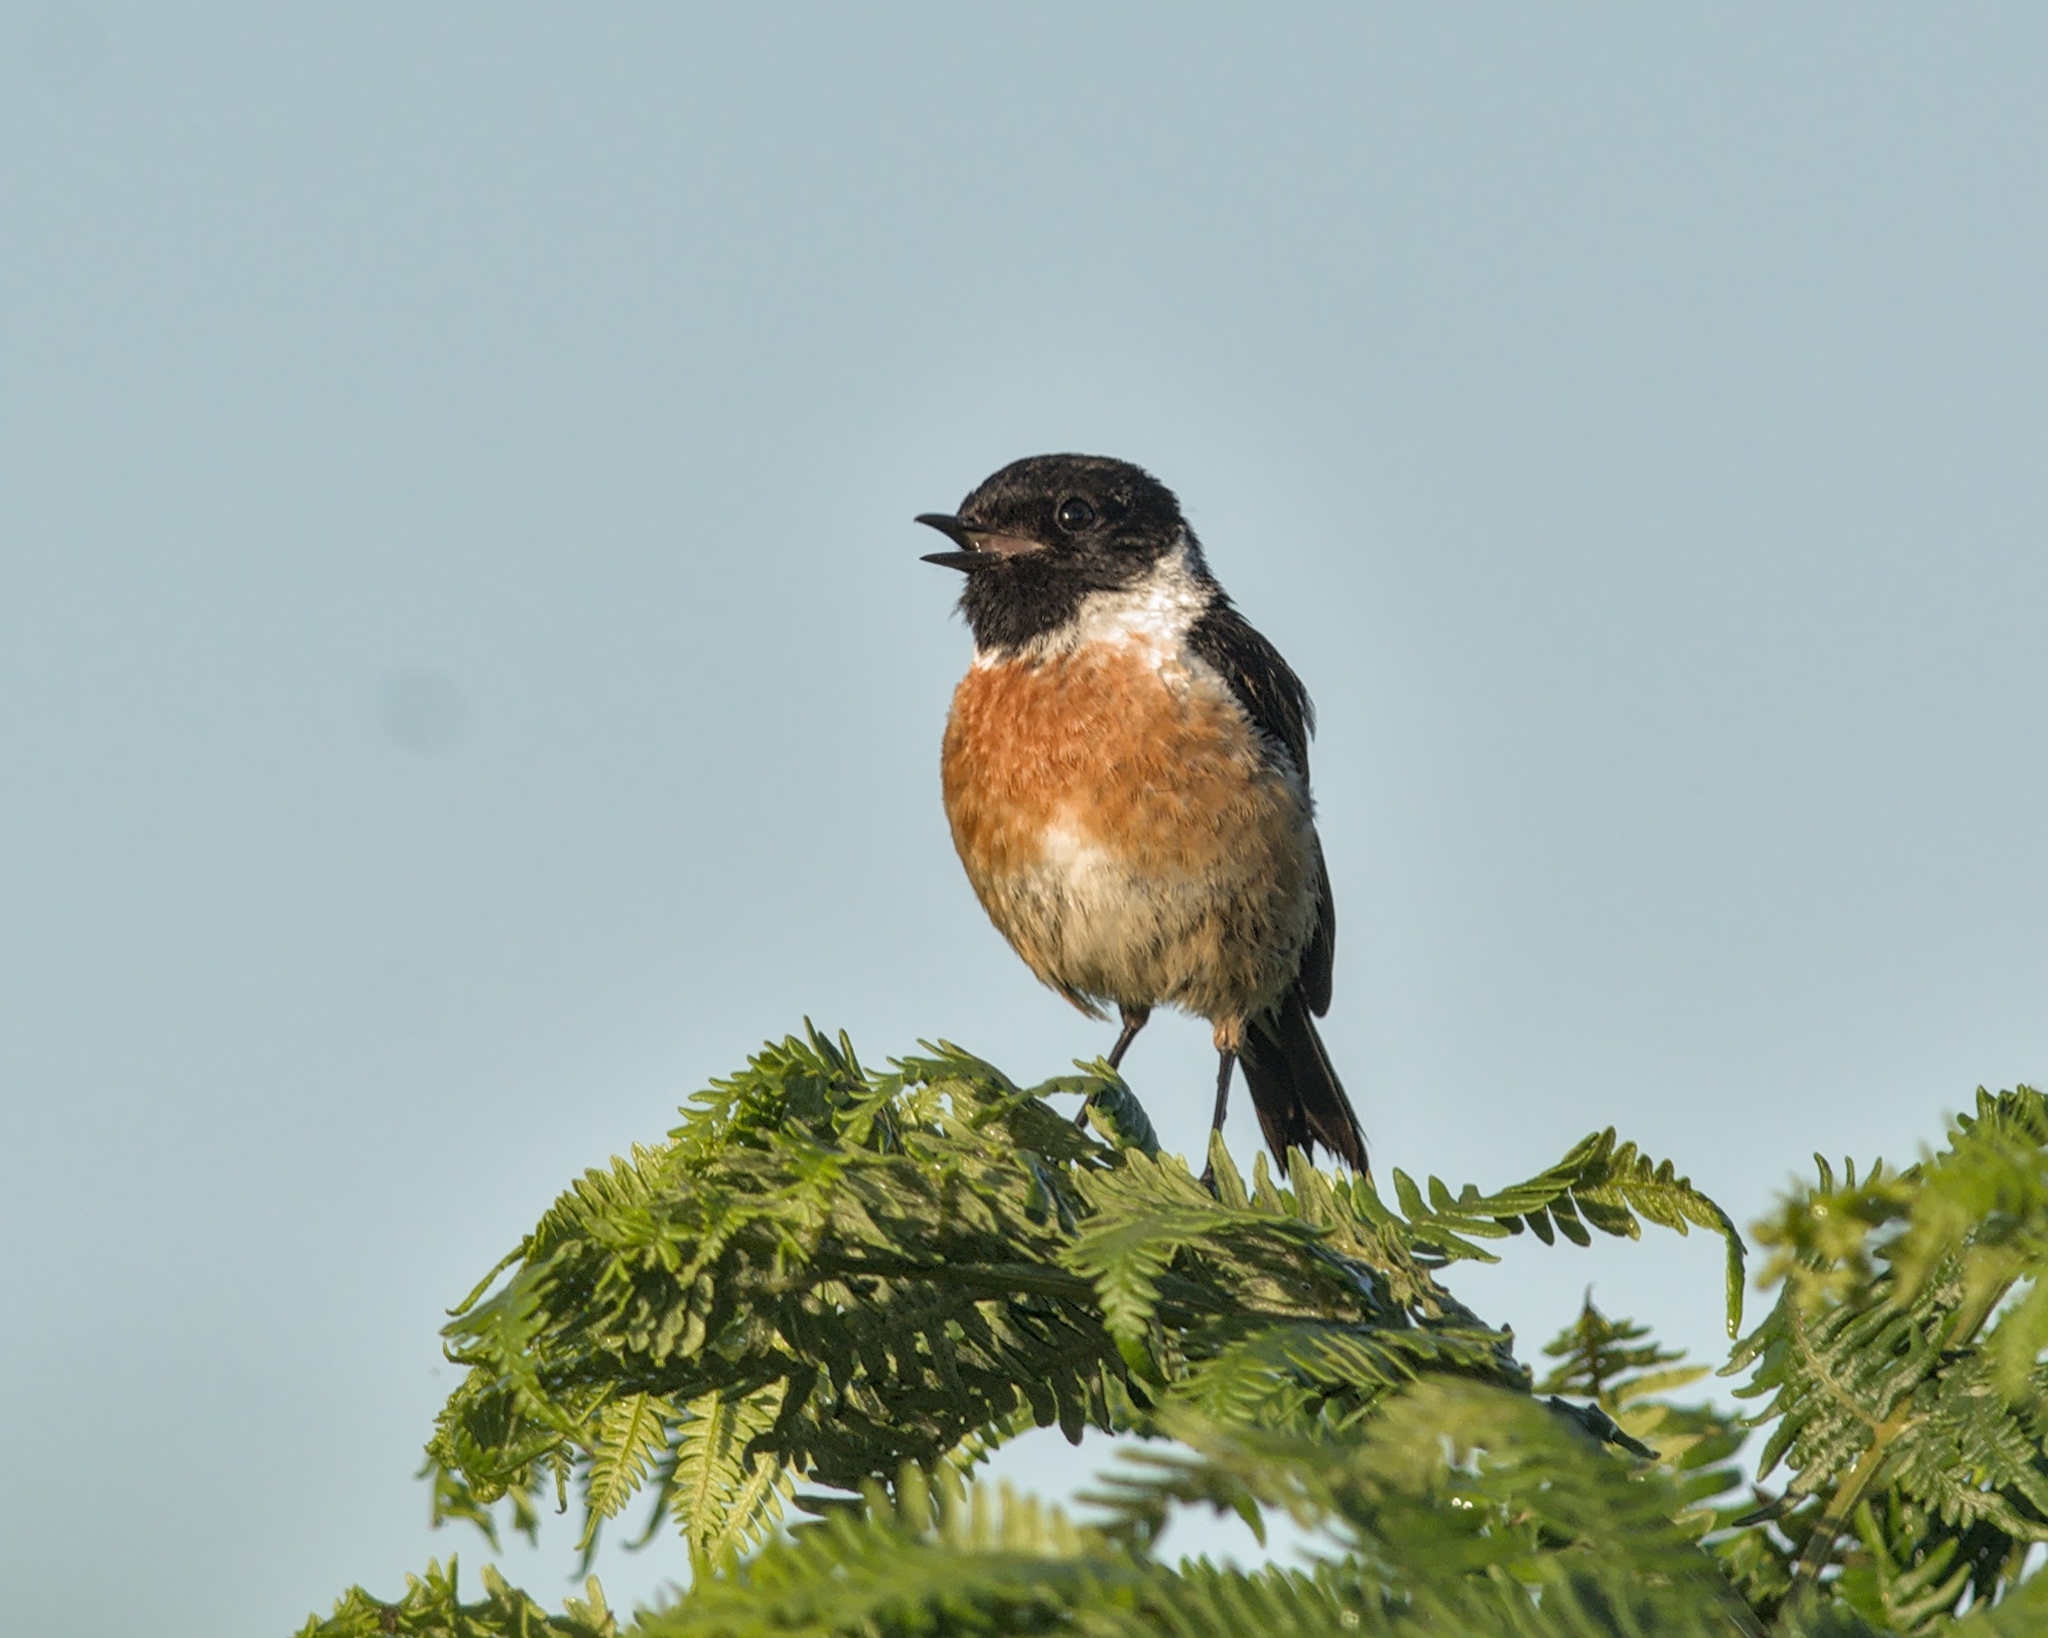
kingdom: Animalia
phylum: Chordata
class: Aves
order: Passeriformes
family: Muscicapidae
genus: Saxicola
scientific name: Saxicola rubicola
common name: European stonechat
